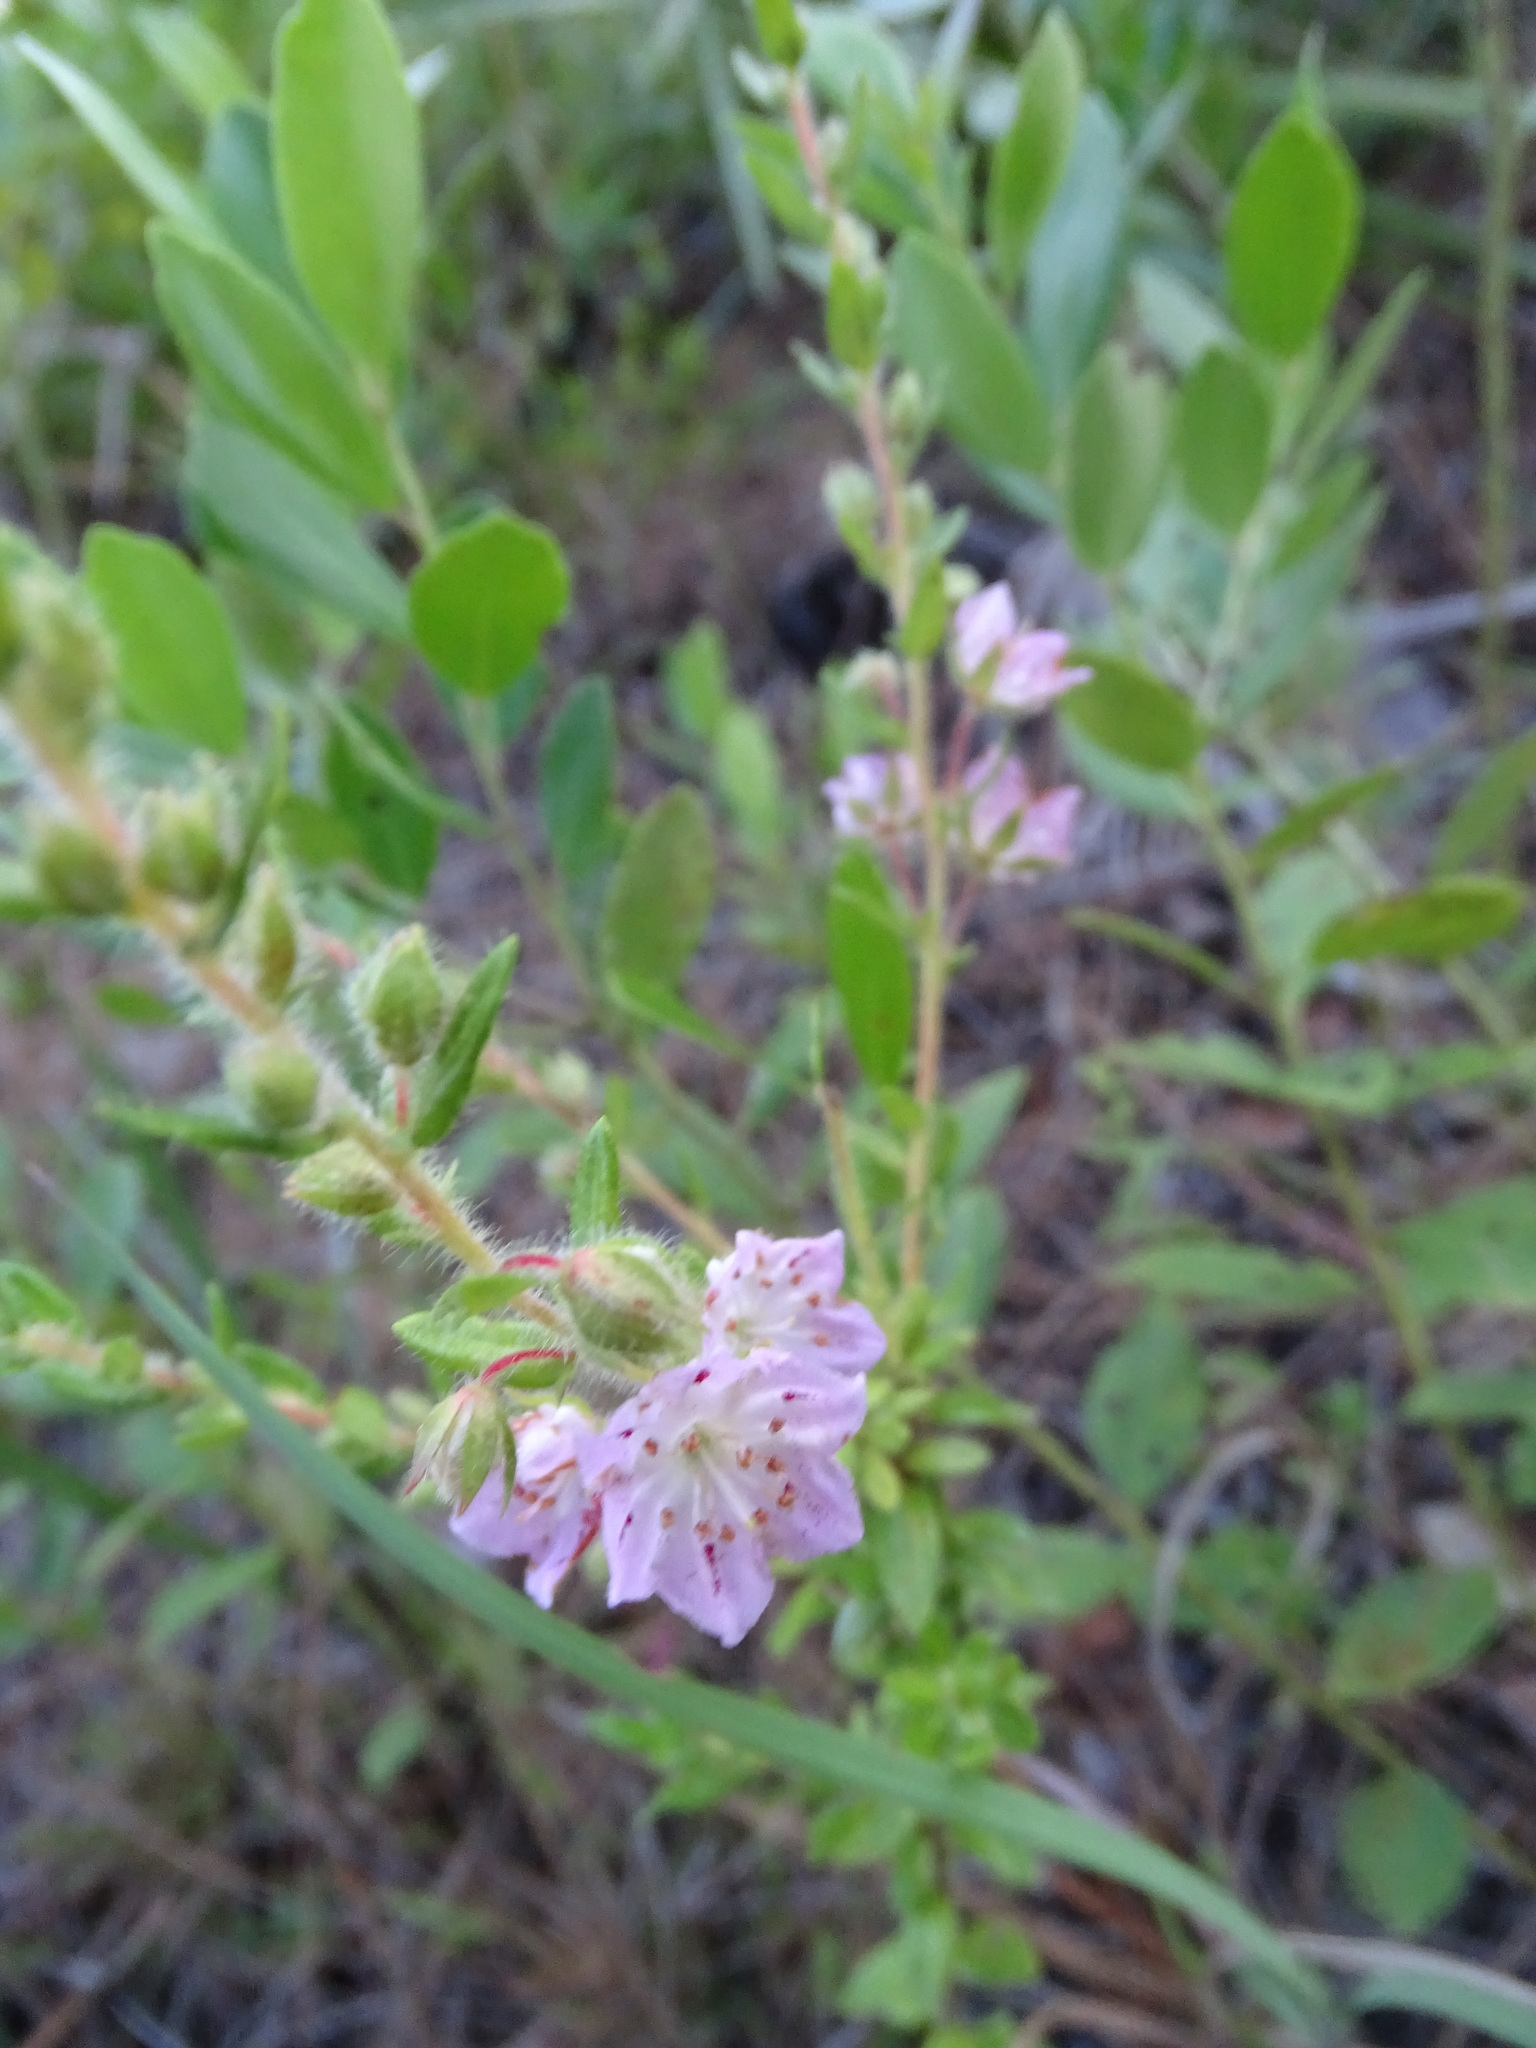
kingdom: Plantae
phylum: Tracheophyta
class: Magnoliopsida
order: Ericales
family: Ericaceae
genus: Kalmia
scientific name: Kalmia hirsuta
